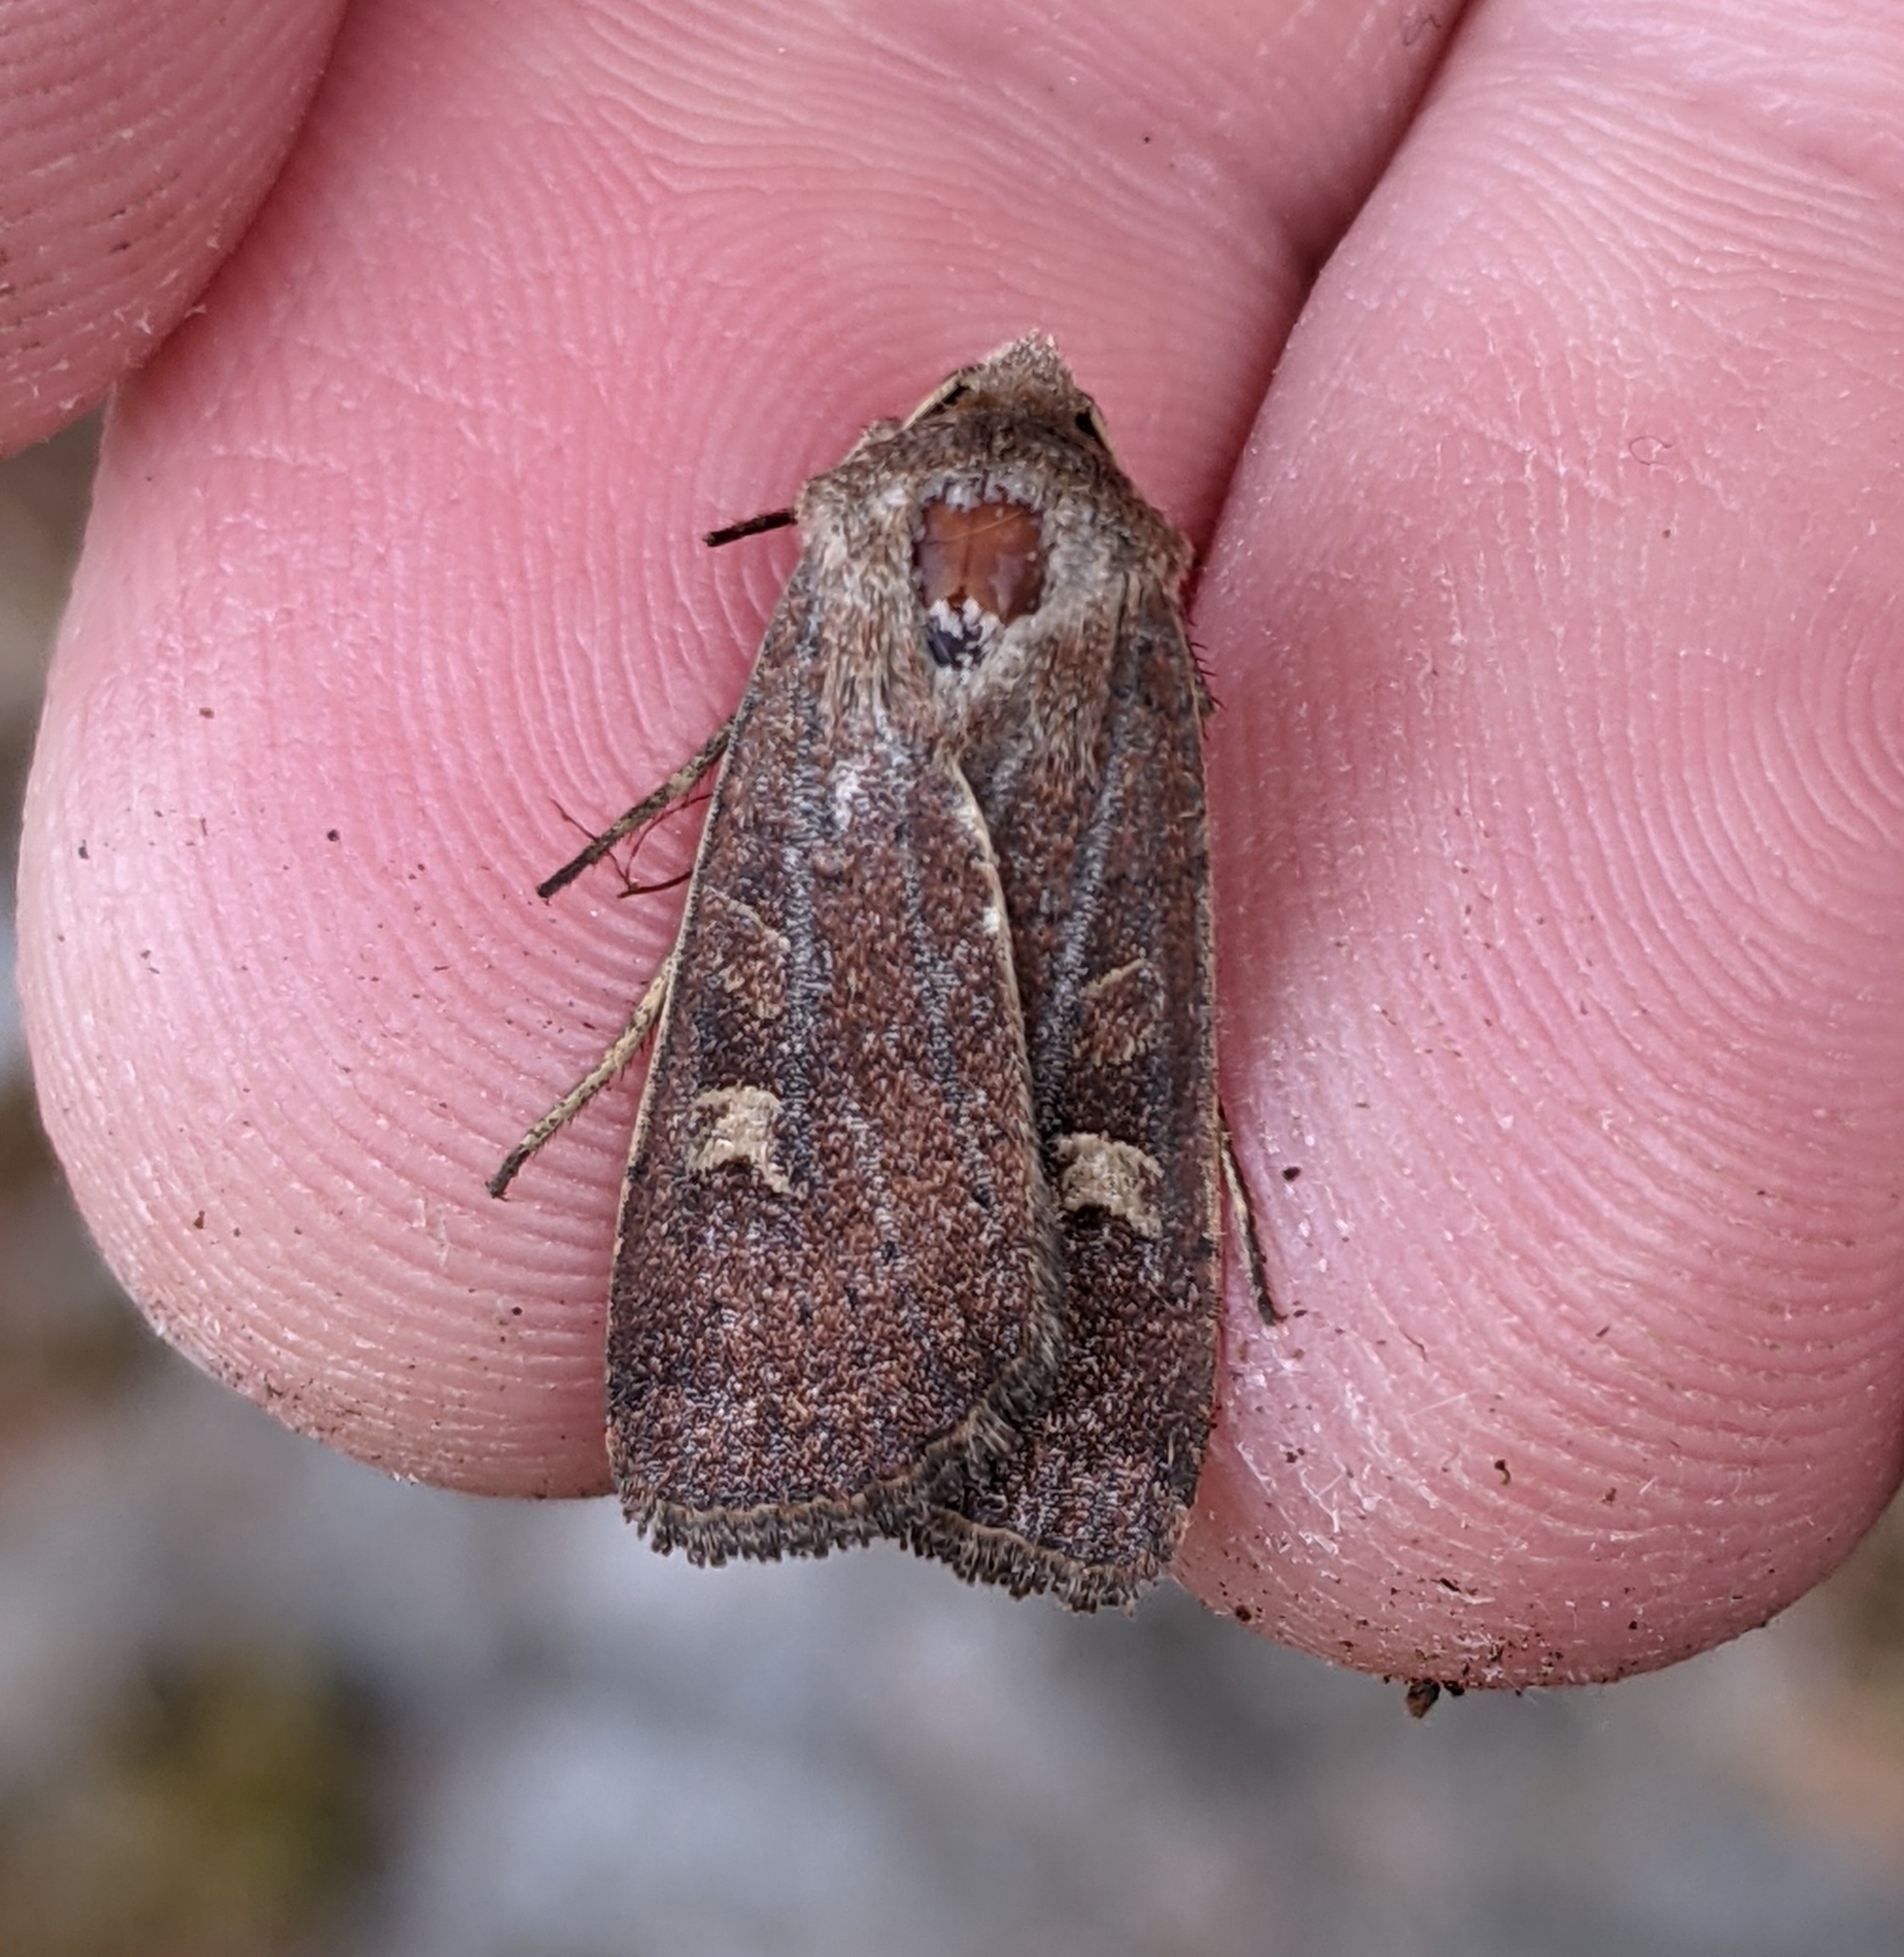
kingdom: Animalia
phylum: Arthropoda
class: Insecta
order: Lepidoptera
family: Noctuidae
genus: Xestia
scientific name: Xestia xanthographa
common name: Square-spot rustic
